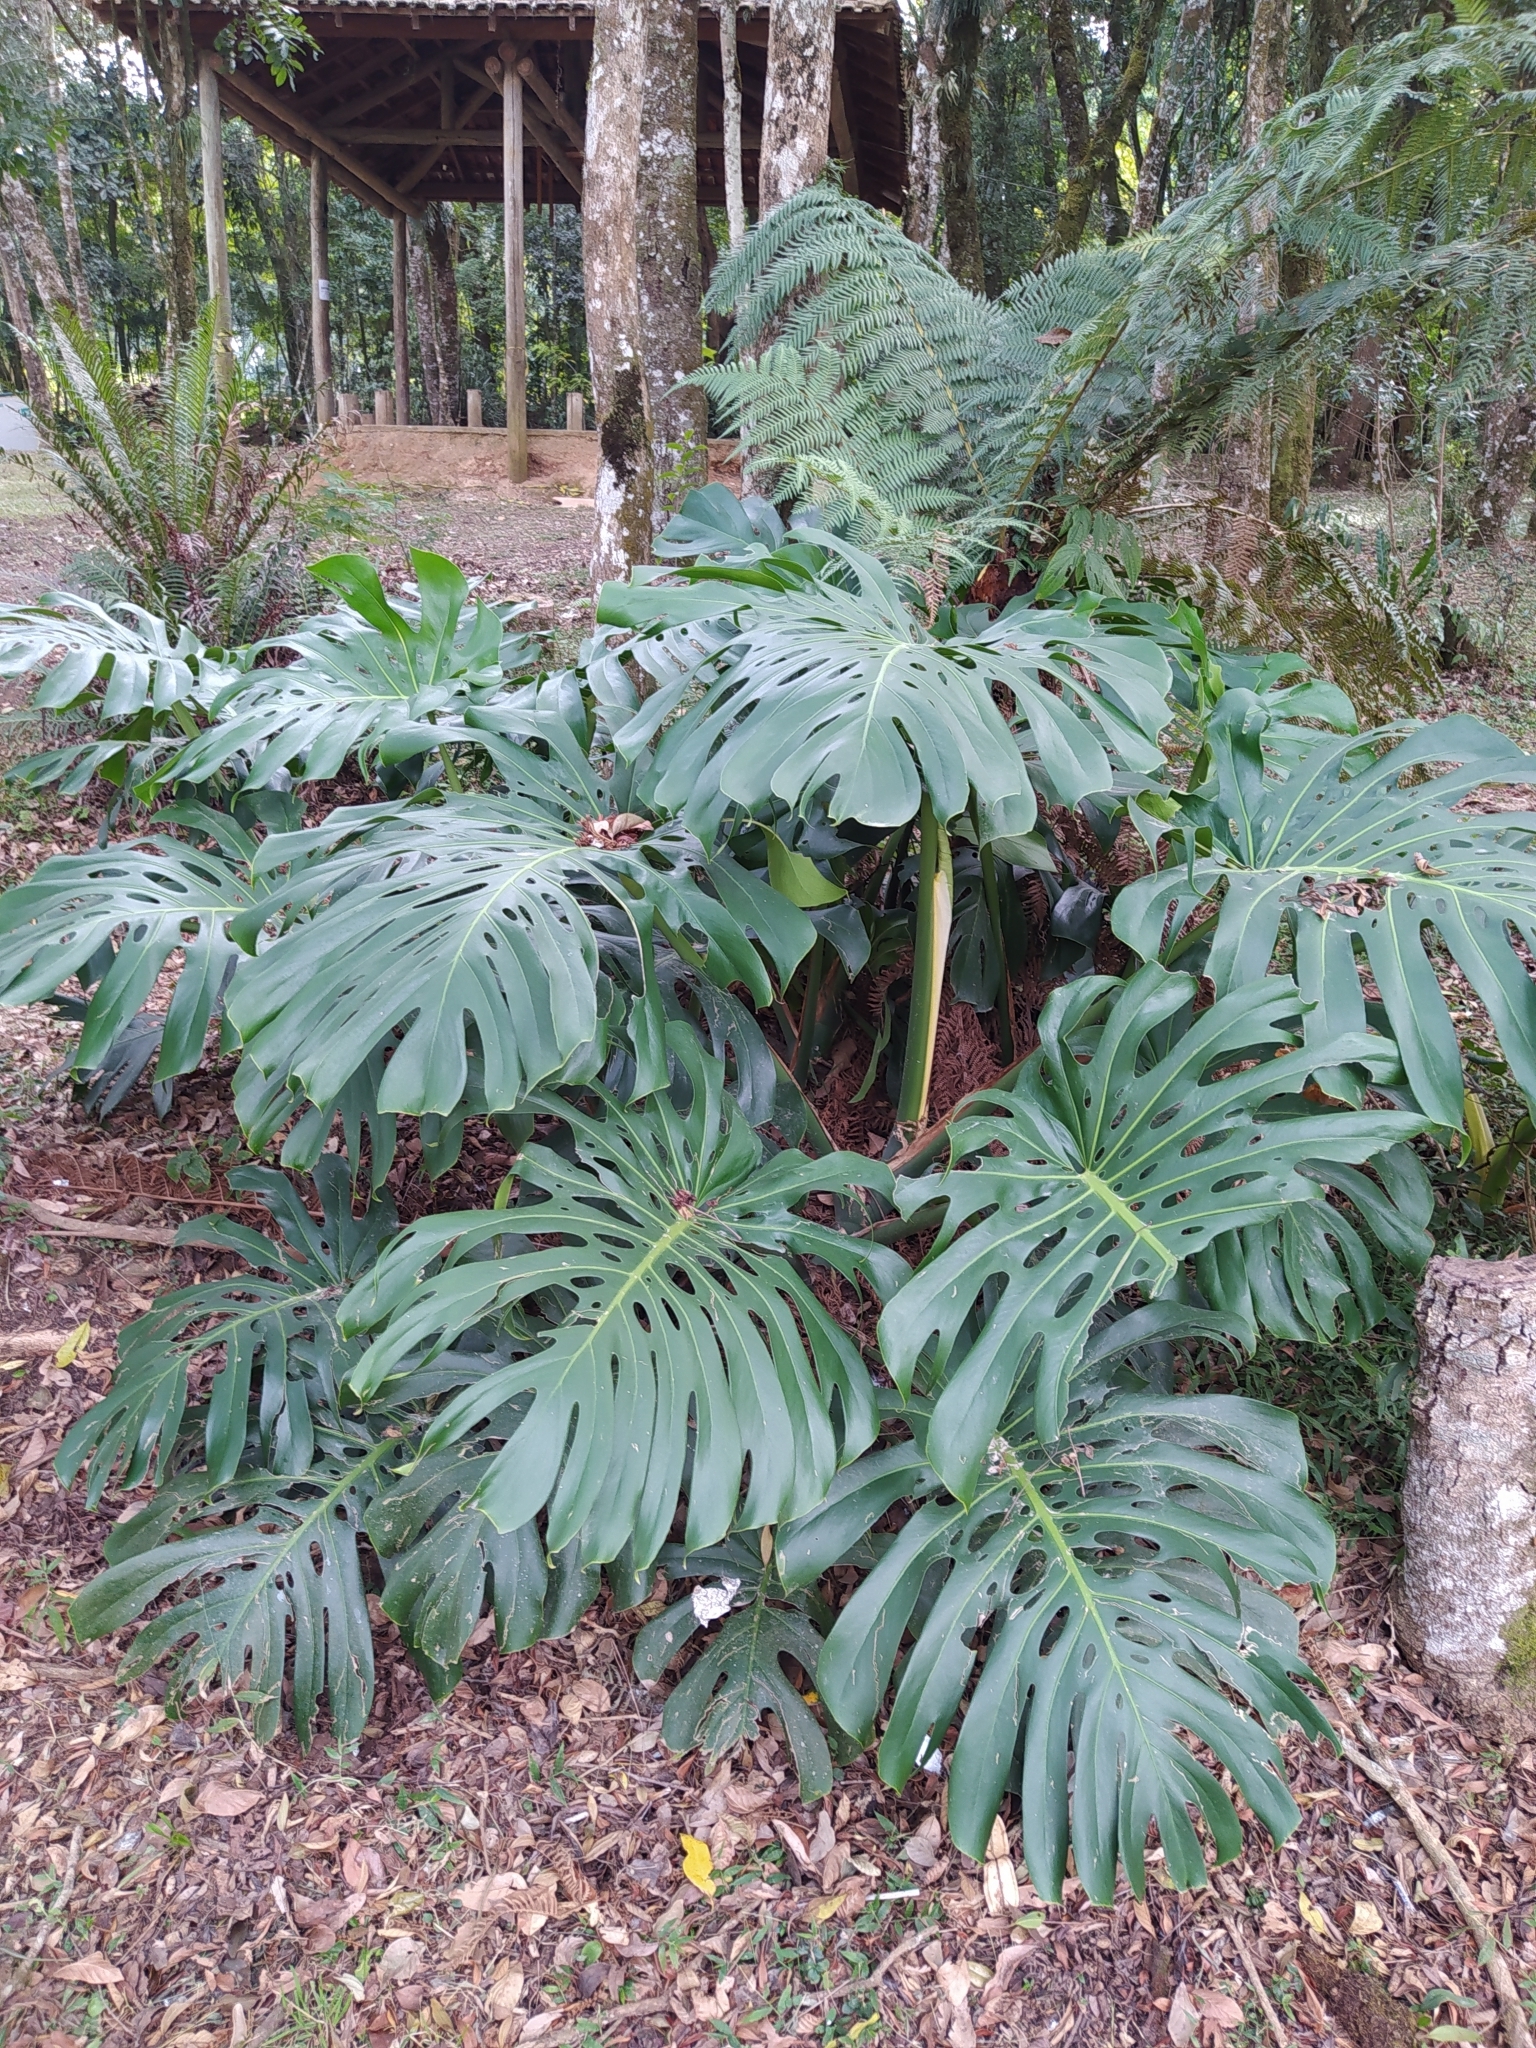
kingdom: Plantae
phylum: Tracheophyta
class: Liliopsida
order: Alismatales
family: Araceae
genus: Monstera
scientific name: Monstera deliciosa
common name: Cut-leaf-philodendron
